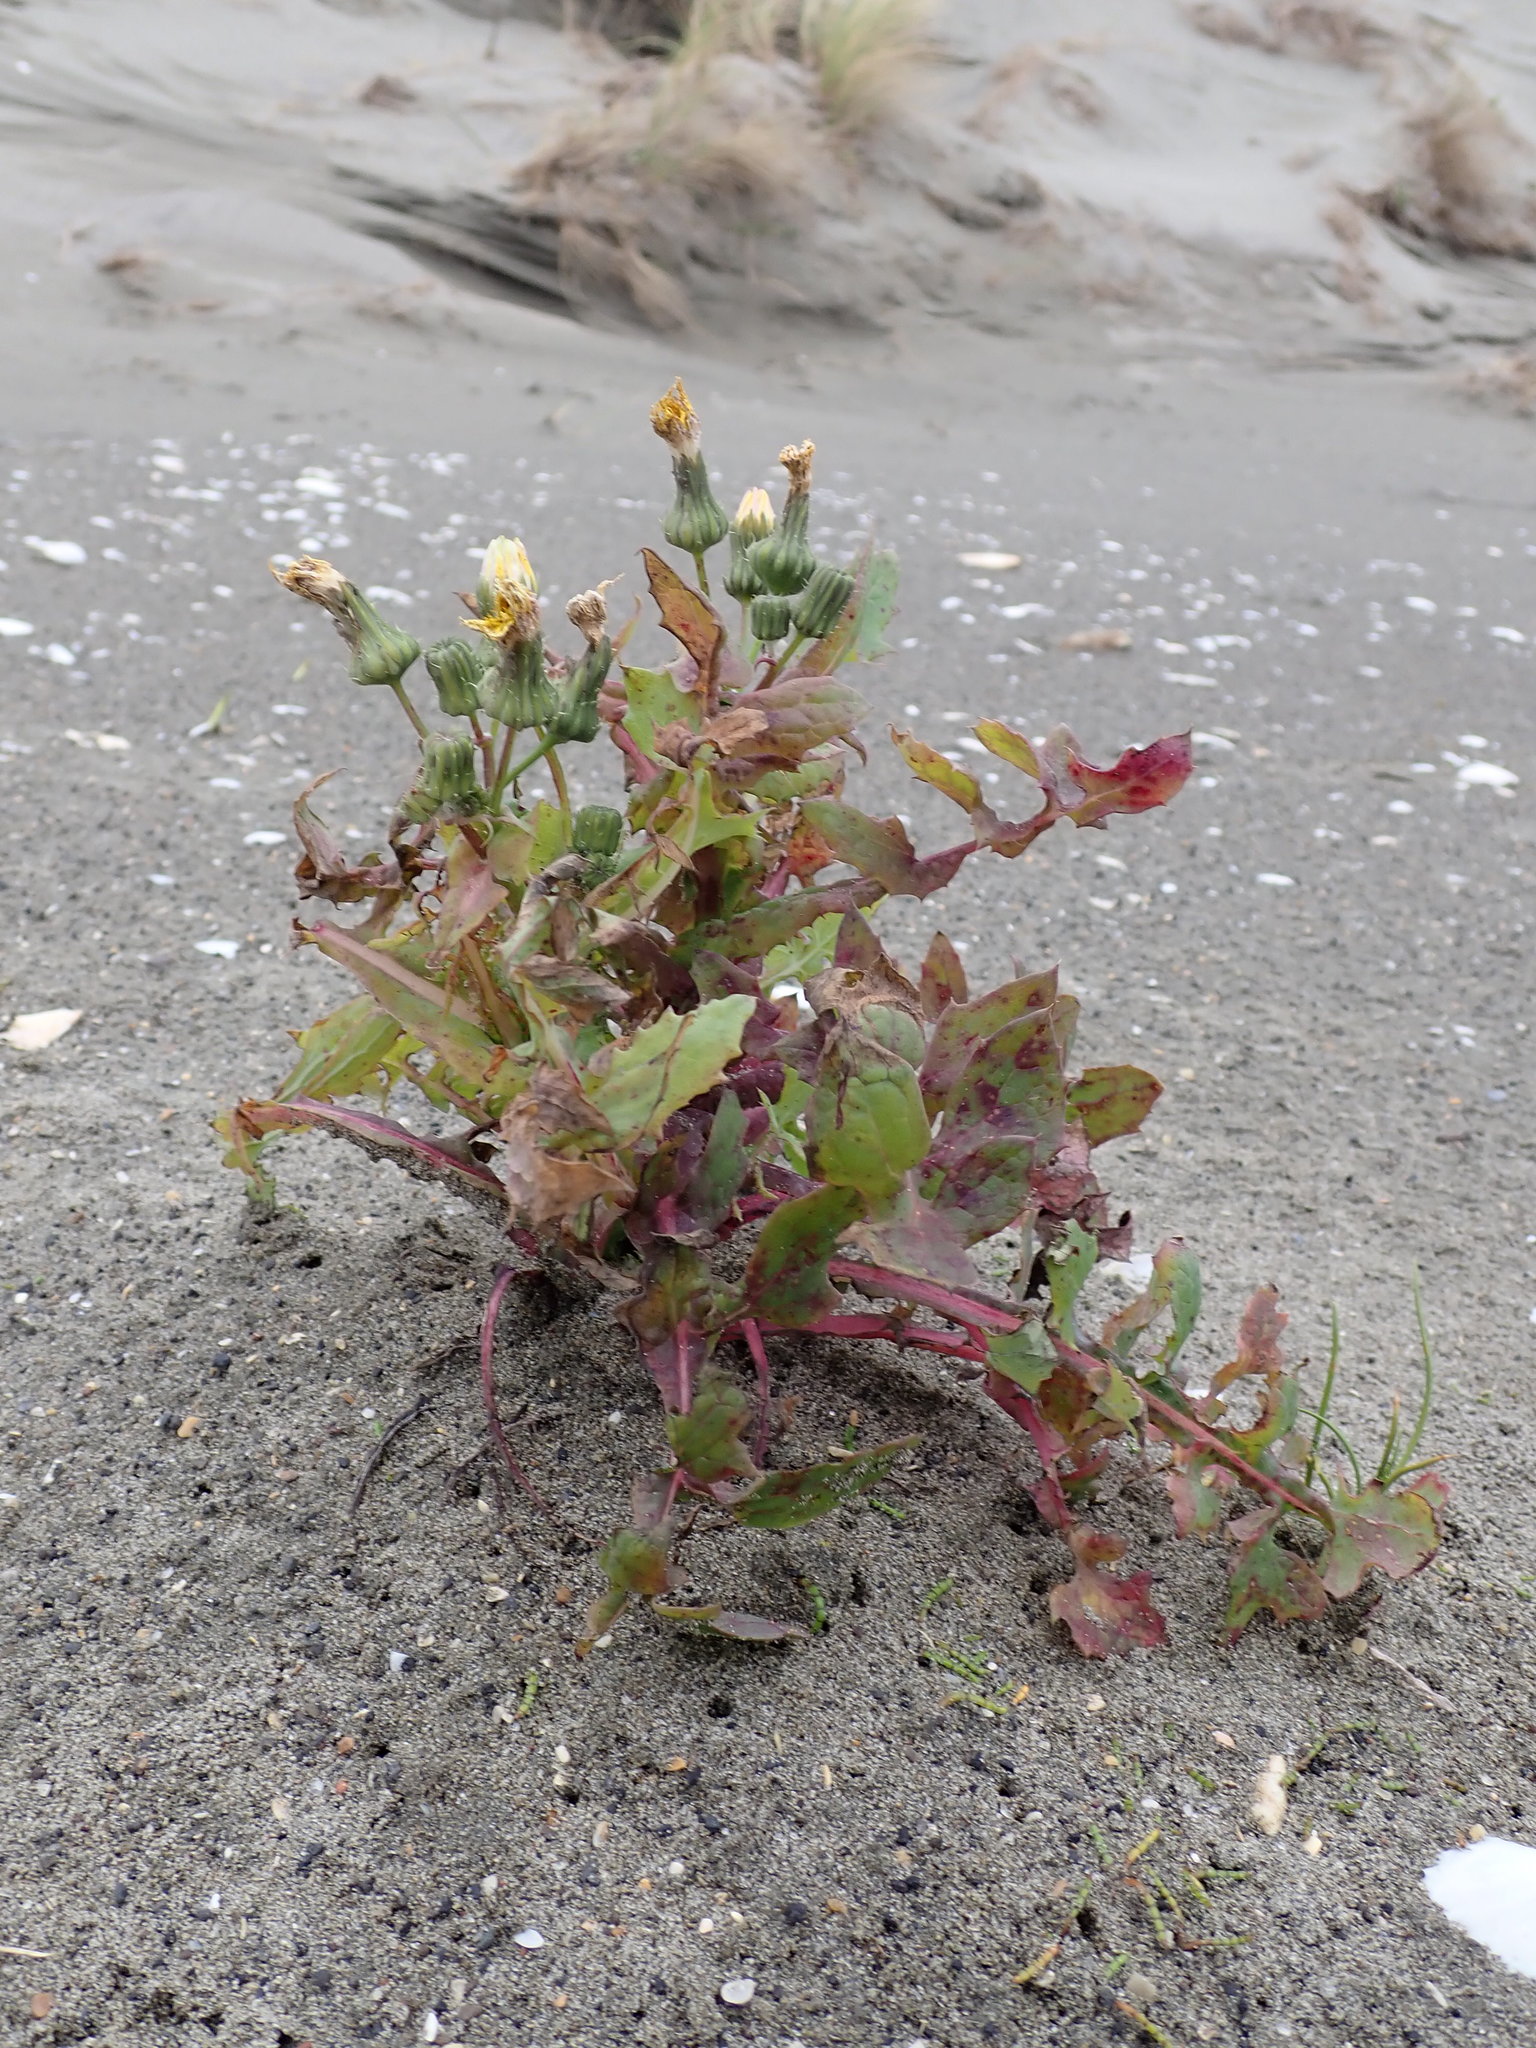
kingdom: Plantae
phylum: Tracheophyta
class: Magnoliopsida
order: Asterales
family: Asteraceae
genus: Sonchus
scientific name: Sonchus oleraceus
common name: Common sowthistle
